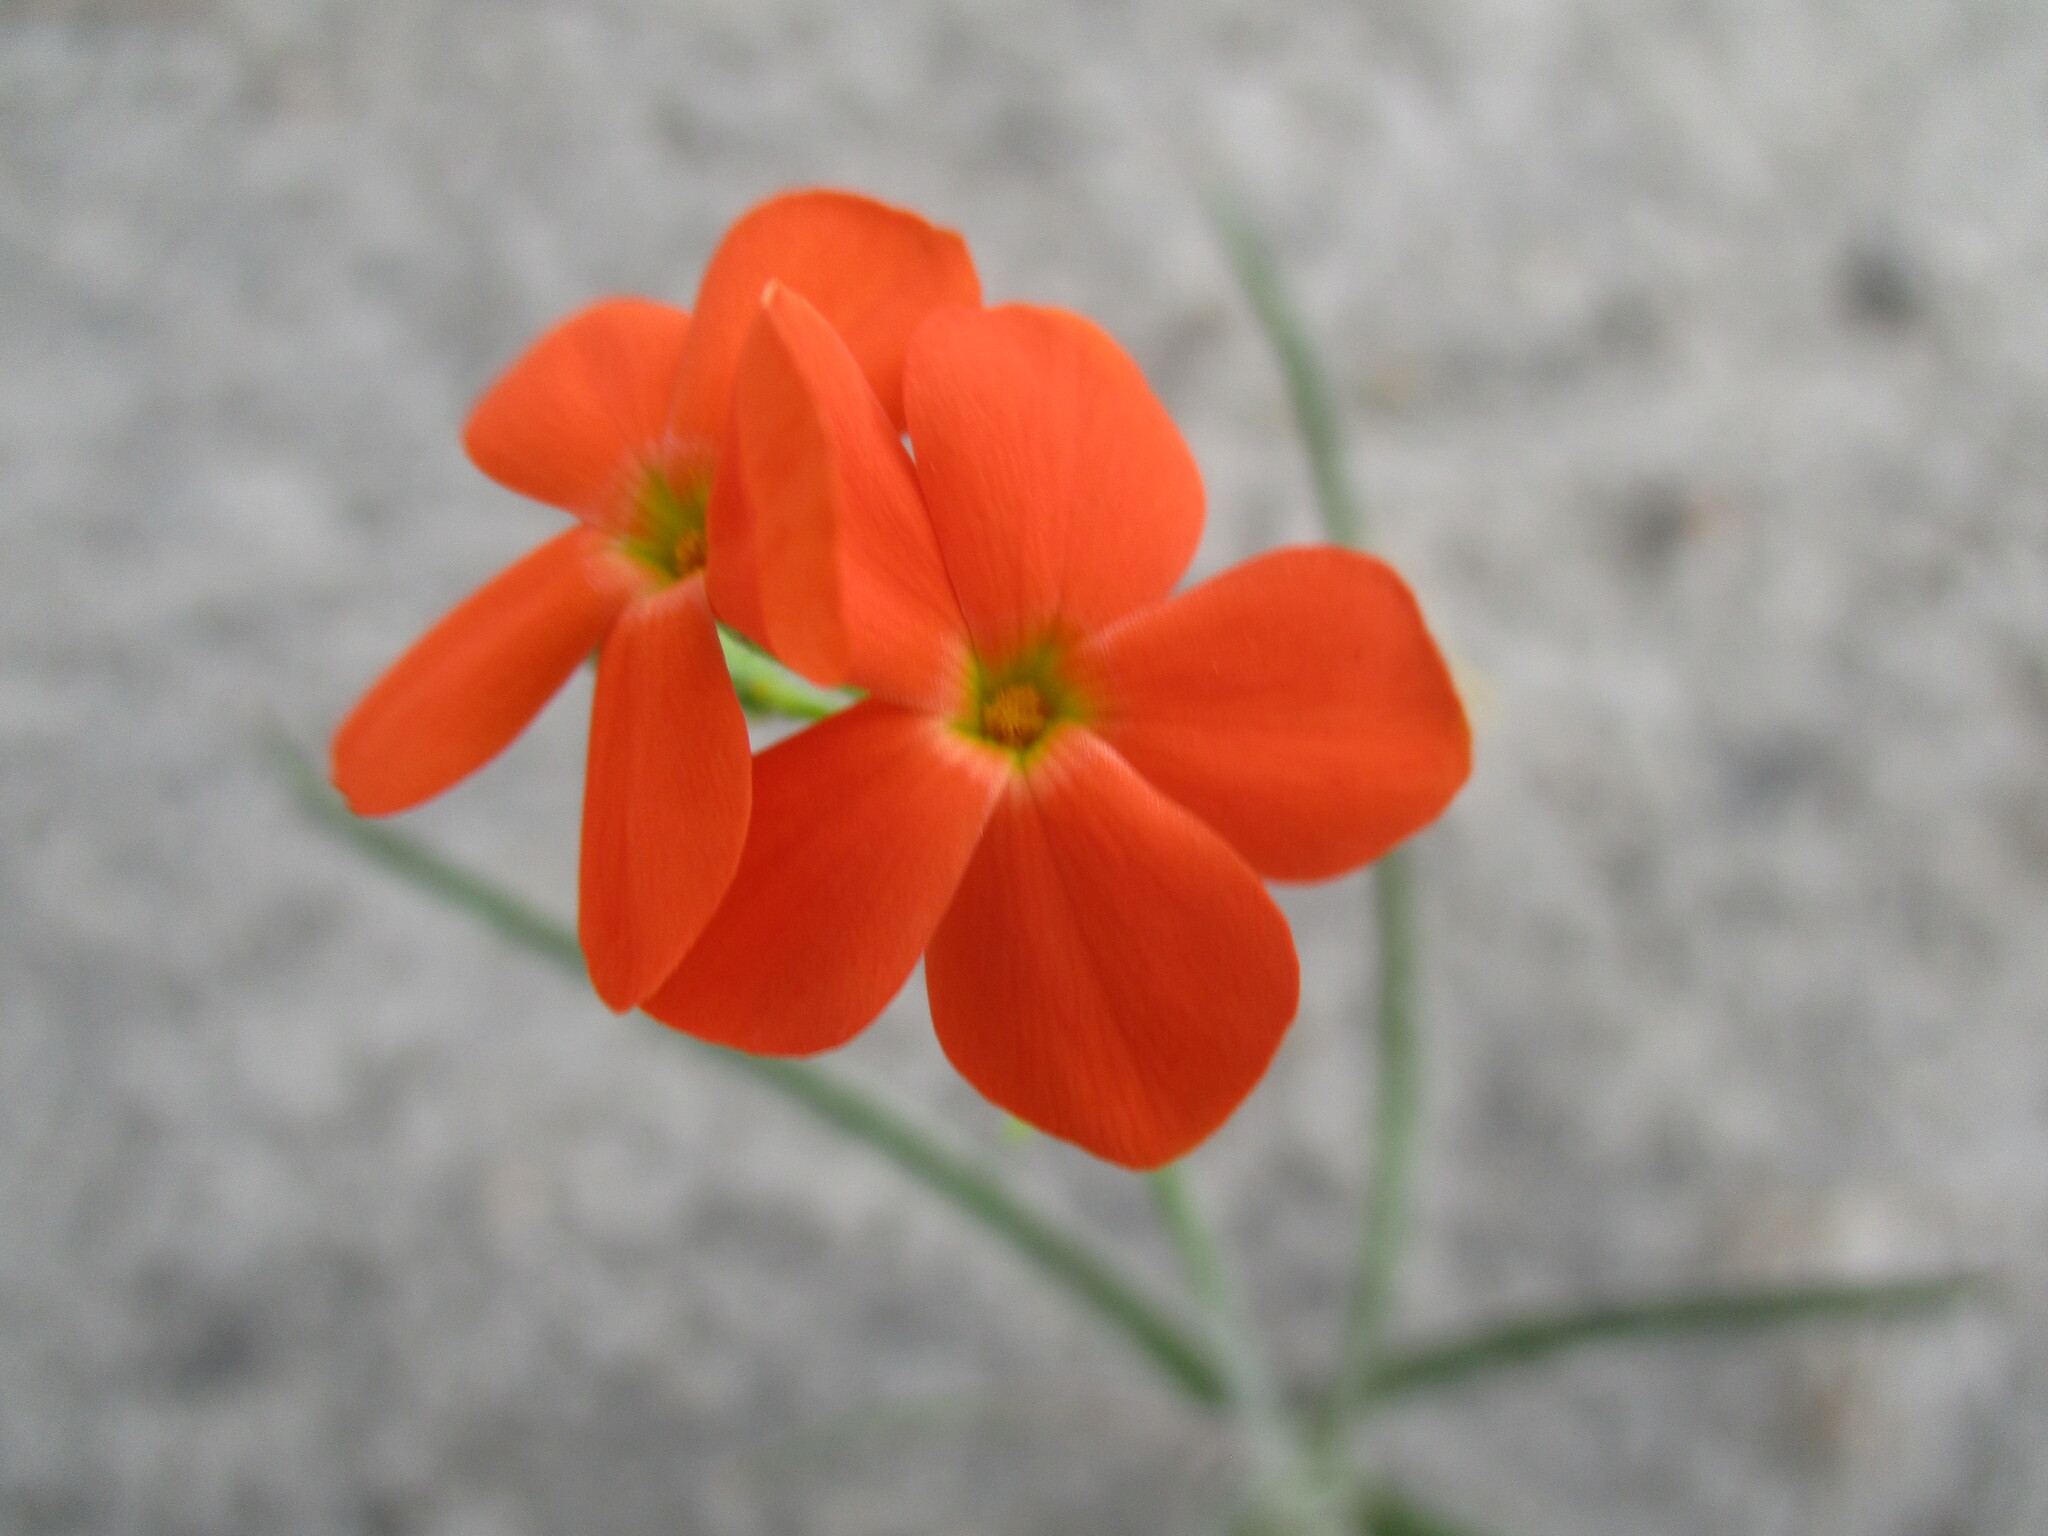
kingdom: Plantae
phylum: Tracheophyta
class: Magnoliopsida
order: Malpighiales
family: Turneraceae
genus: Tricliceras
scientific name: Tricliceras longepedunculatum
